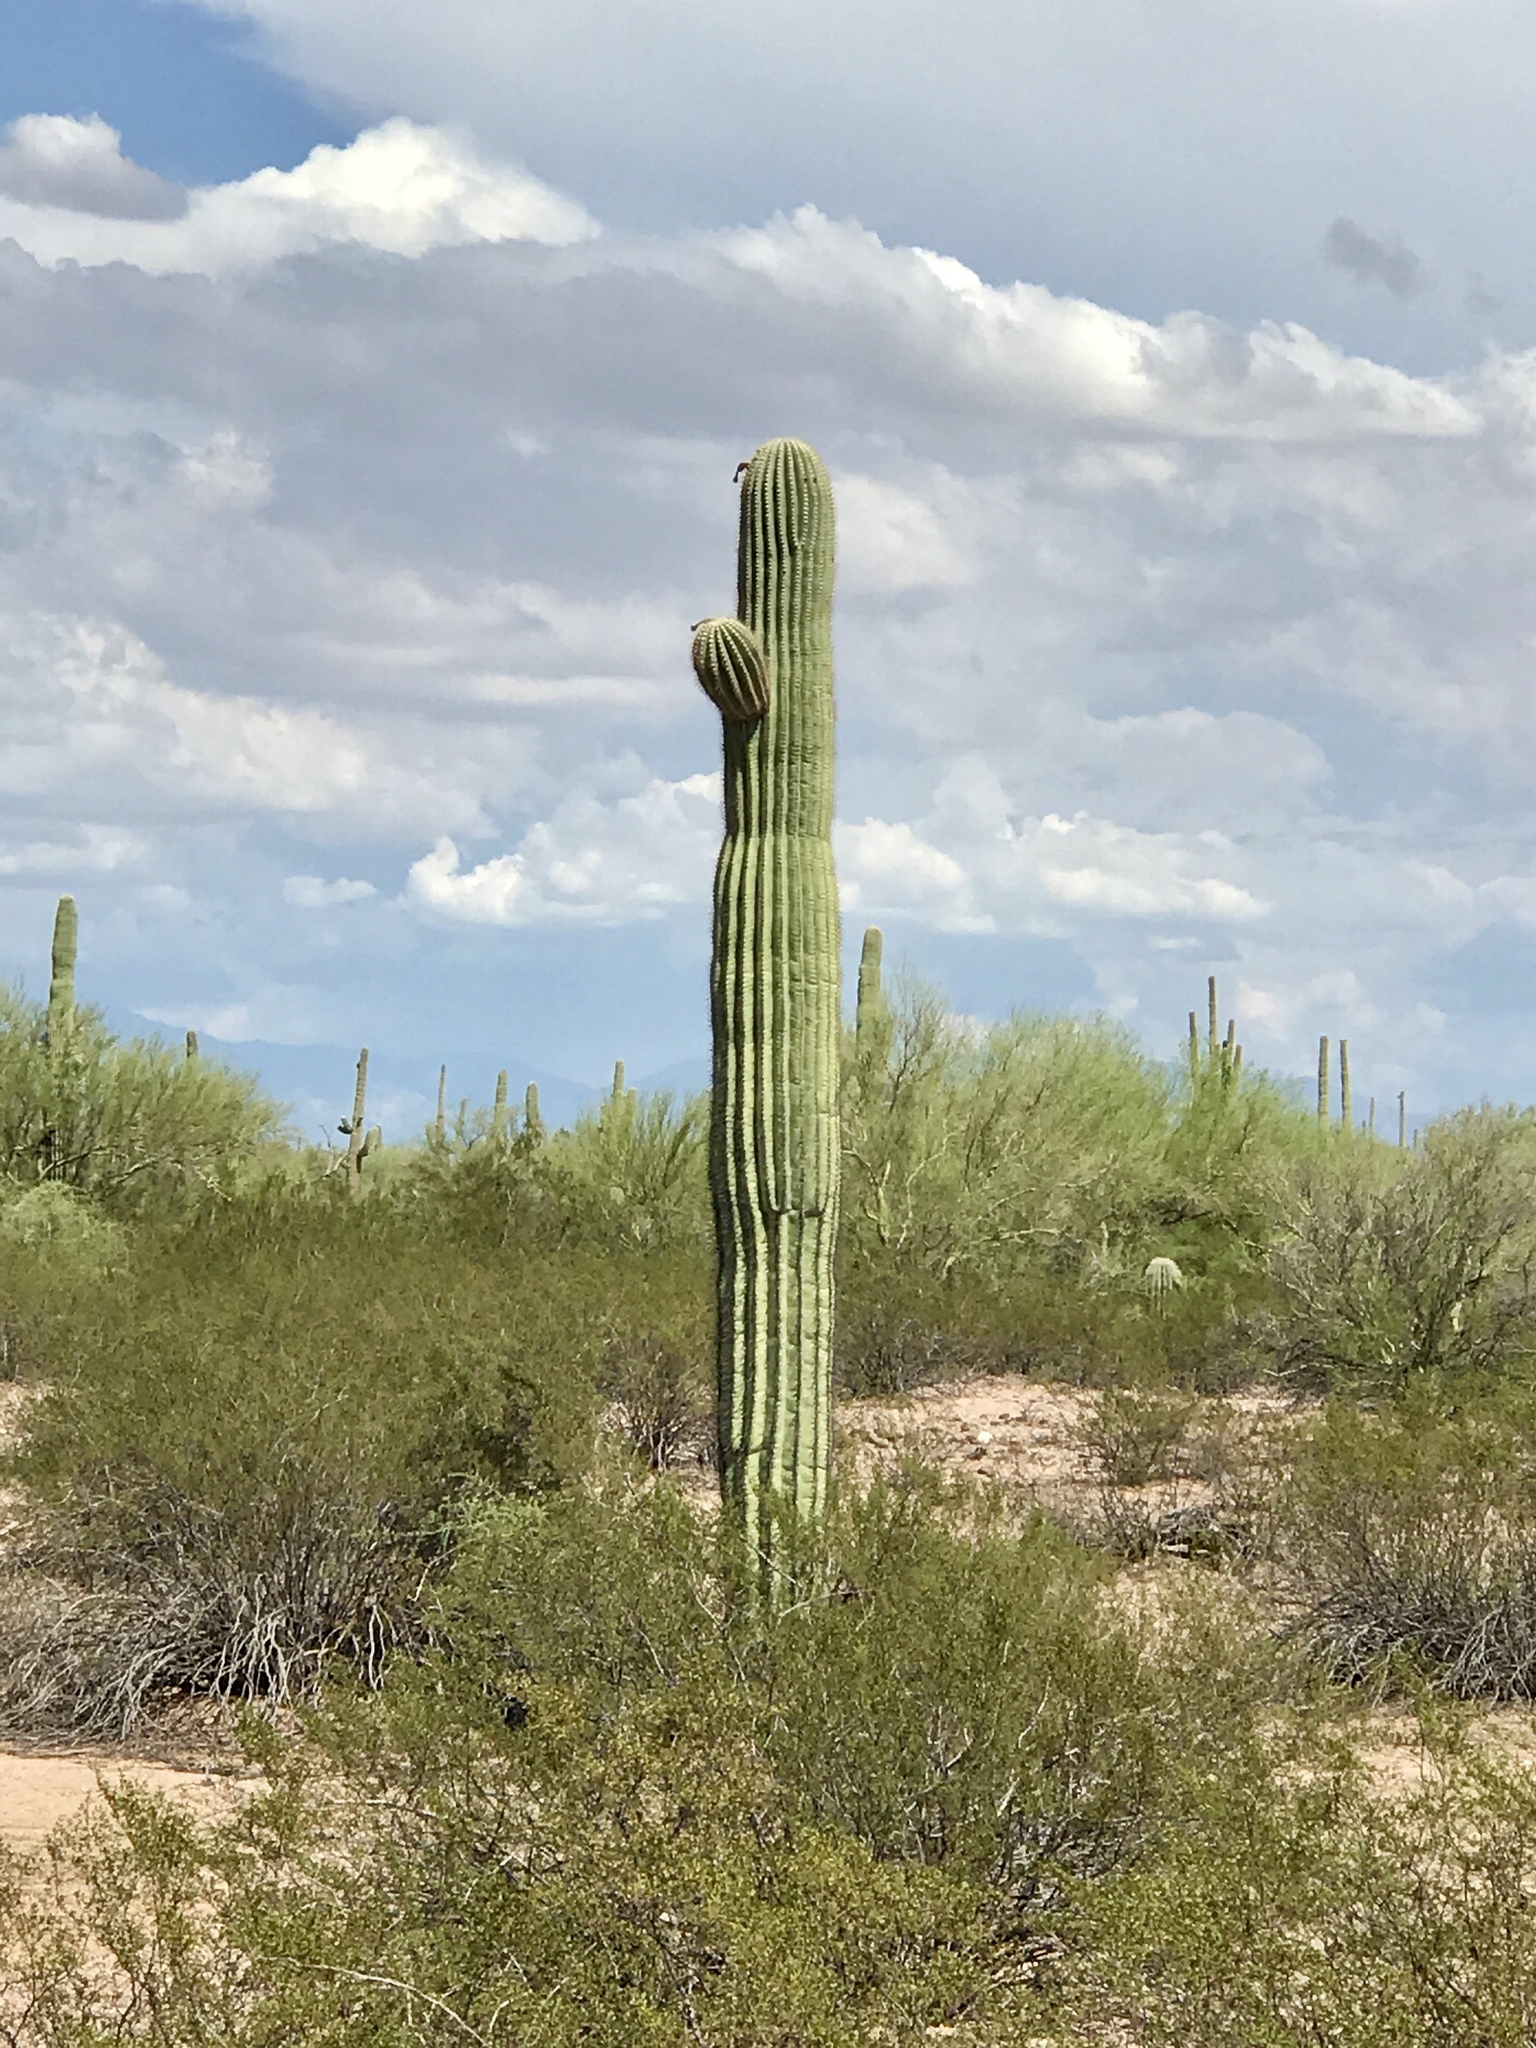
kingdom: Plantae
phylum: Tracheophyta
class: Magnoliopsida
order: Caryophyllales
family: Cactaceae
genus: Carnegiea
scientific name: Carnegiea gigantea
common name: Saguaro
